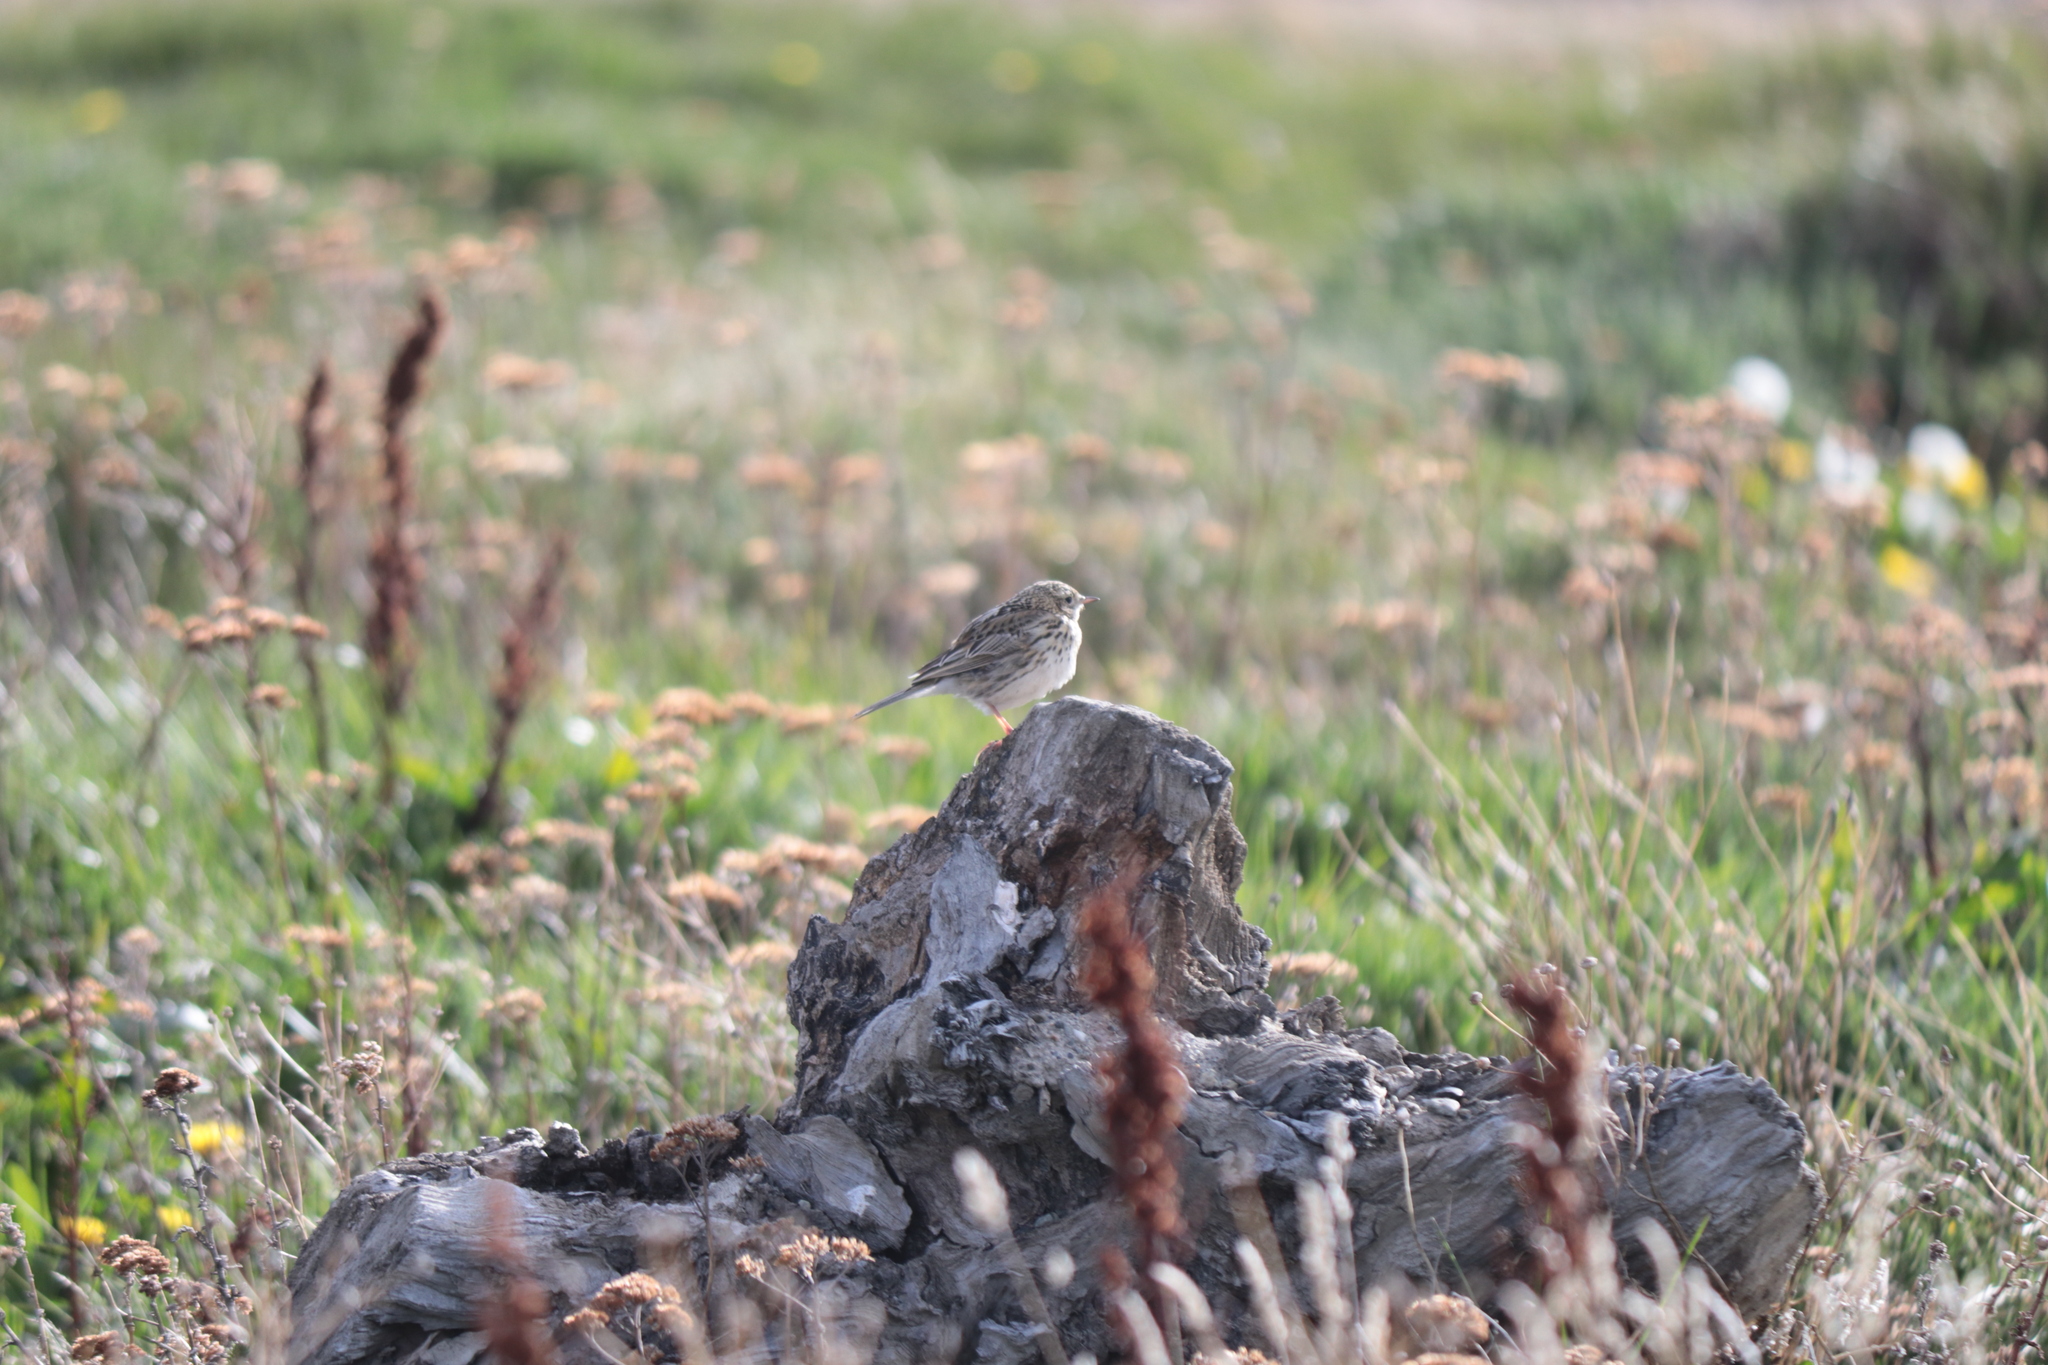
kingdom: Animalia
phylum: Chordata
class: Aves
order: Passeriformes
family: Motacillidae
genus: Anthus
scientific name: Anthus correndera
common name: Correndera pipit
